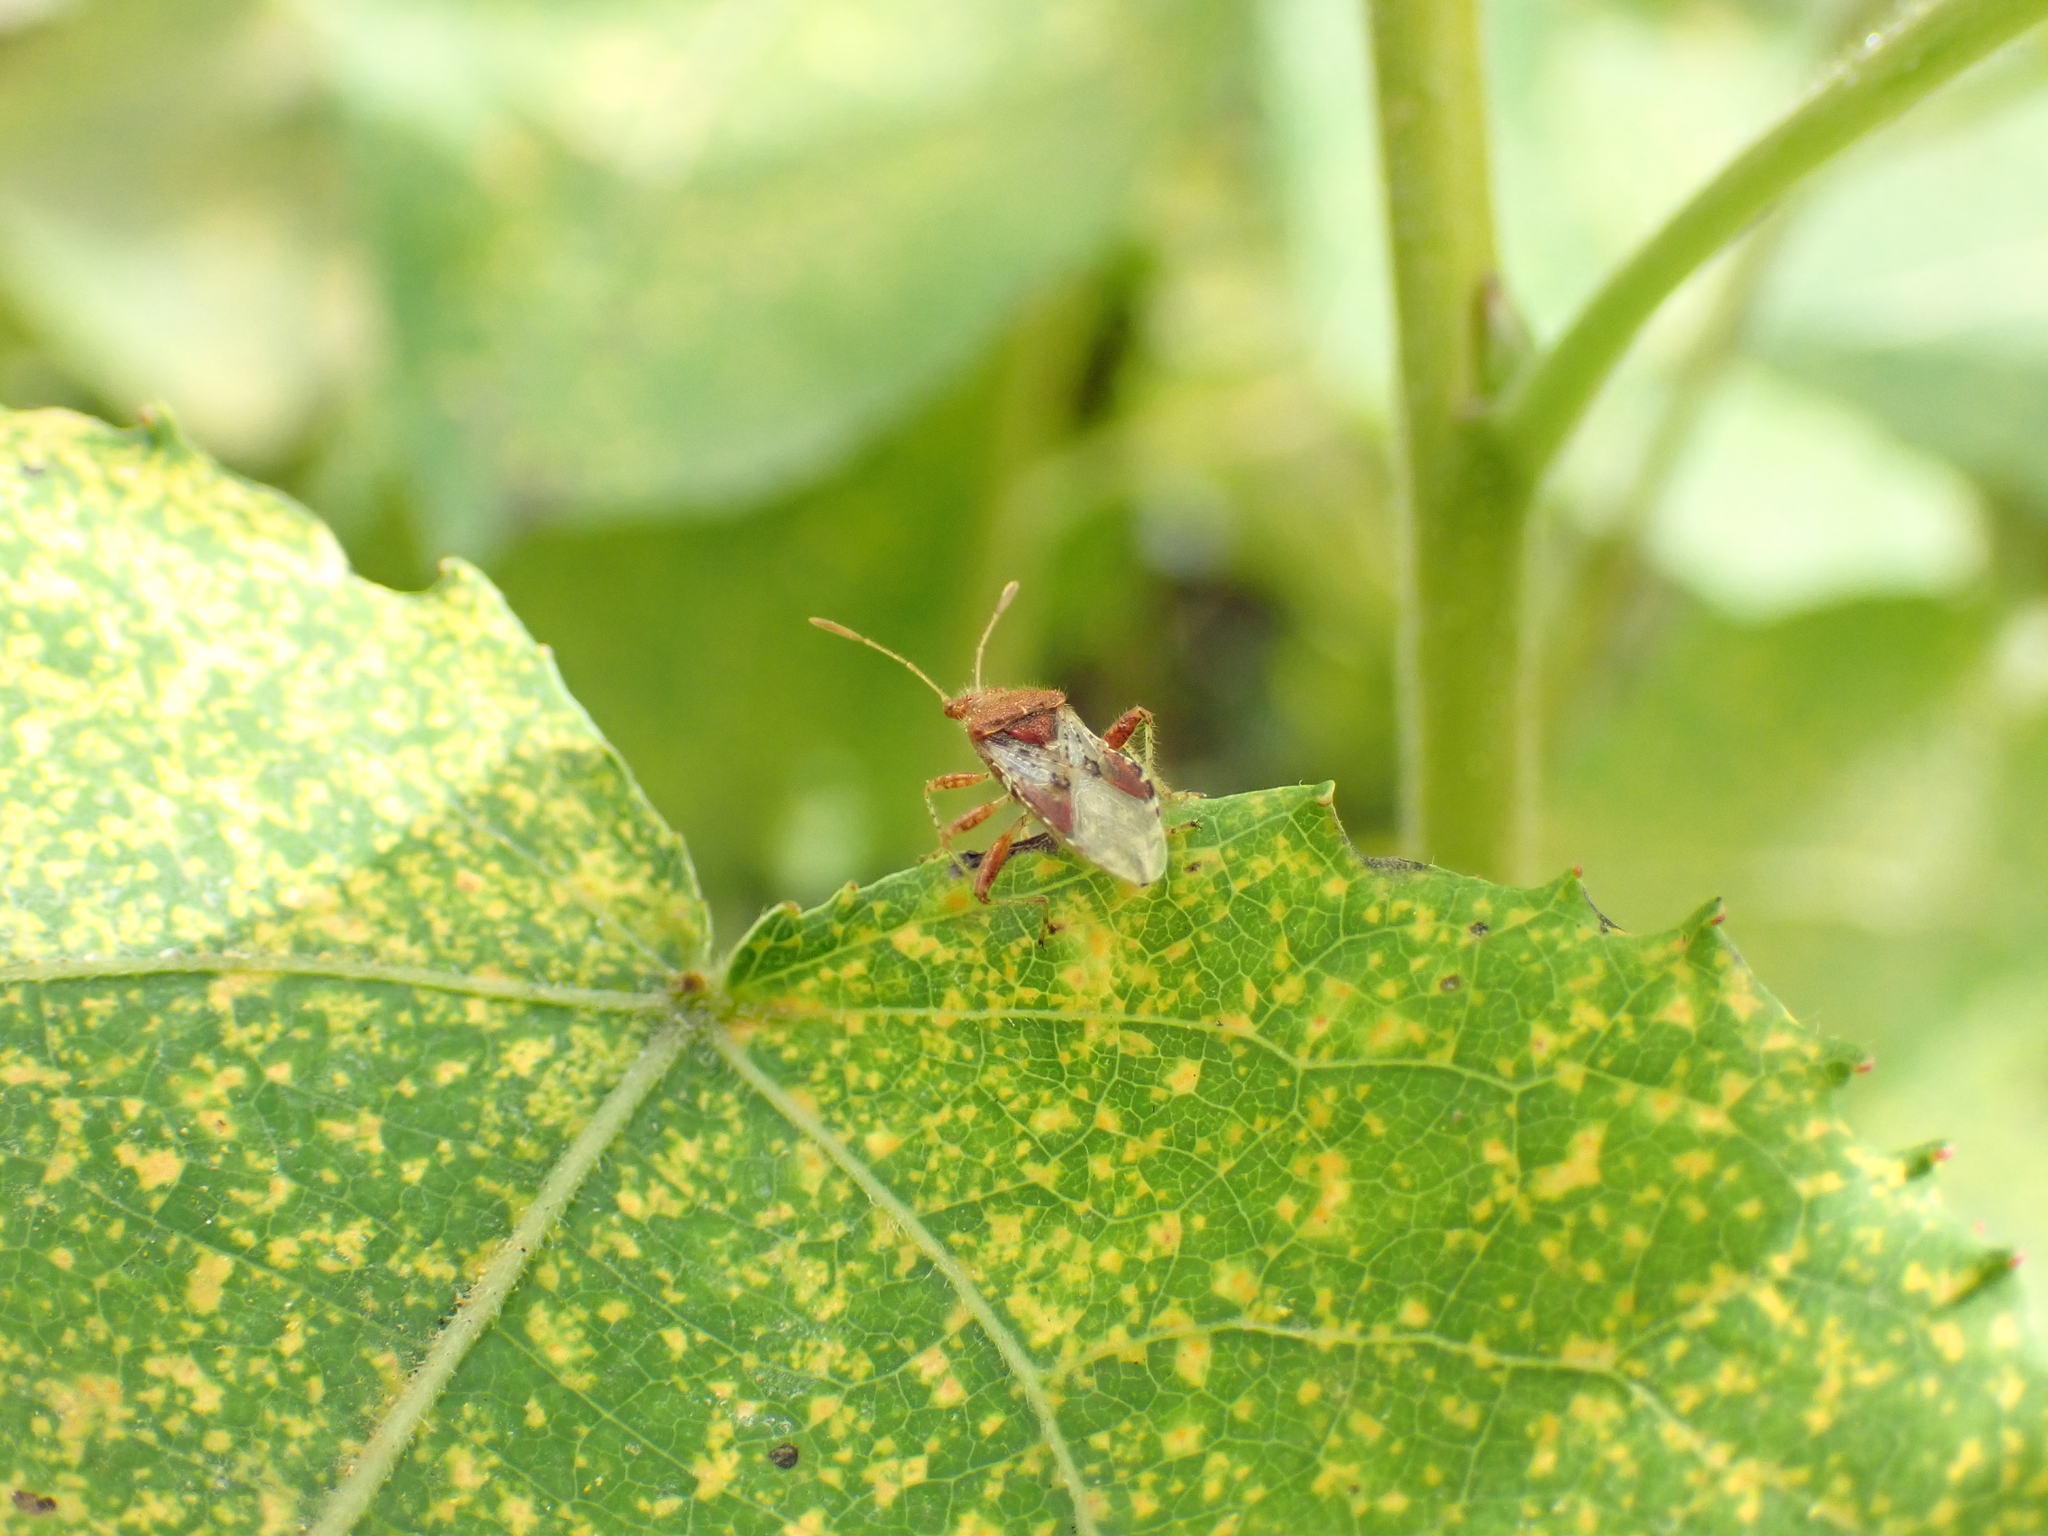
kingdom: Animalia
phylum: Arthropoda
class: Insecta
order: Hemiptera
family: Rhopalidae
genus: Rhopalus
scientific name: Rhopalus subrufus
